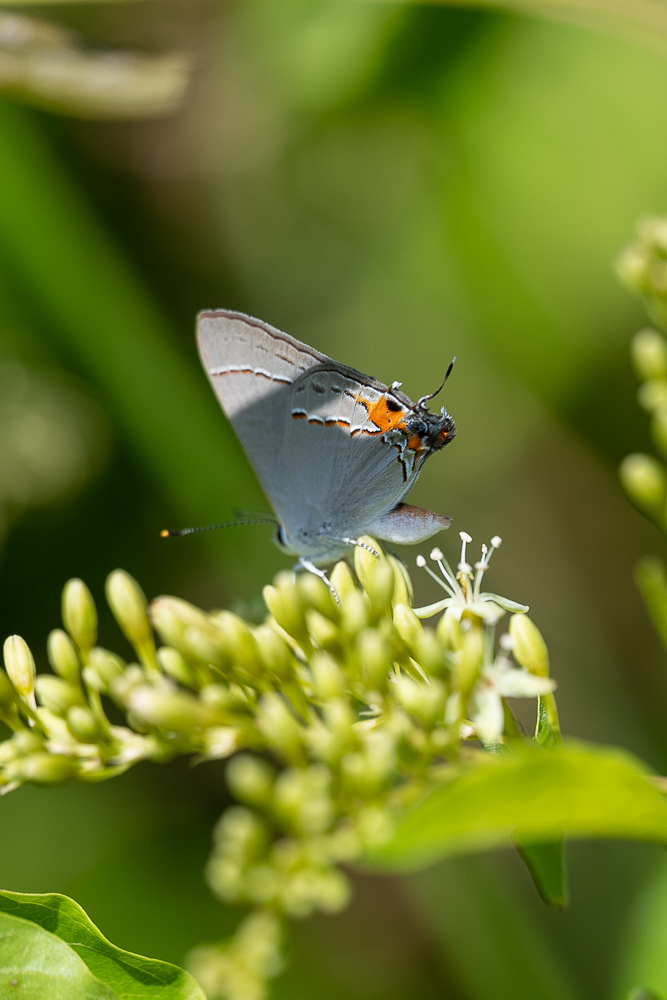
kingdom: Animalia
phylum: Arthropoda
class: Insecta
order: Lepidoptera
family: Lycaenidae
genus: Strymon
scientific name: Strymon melinus
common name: Gray hairstreak
